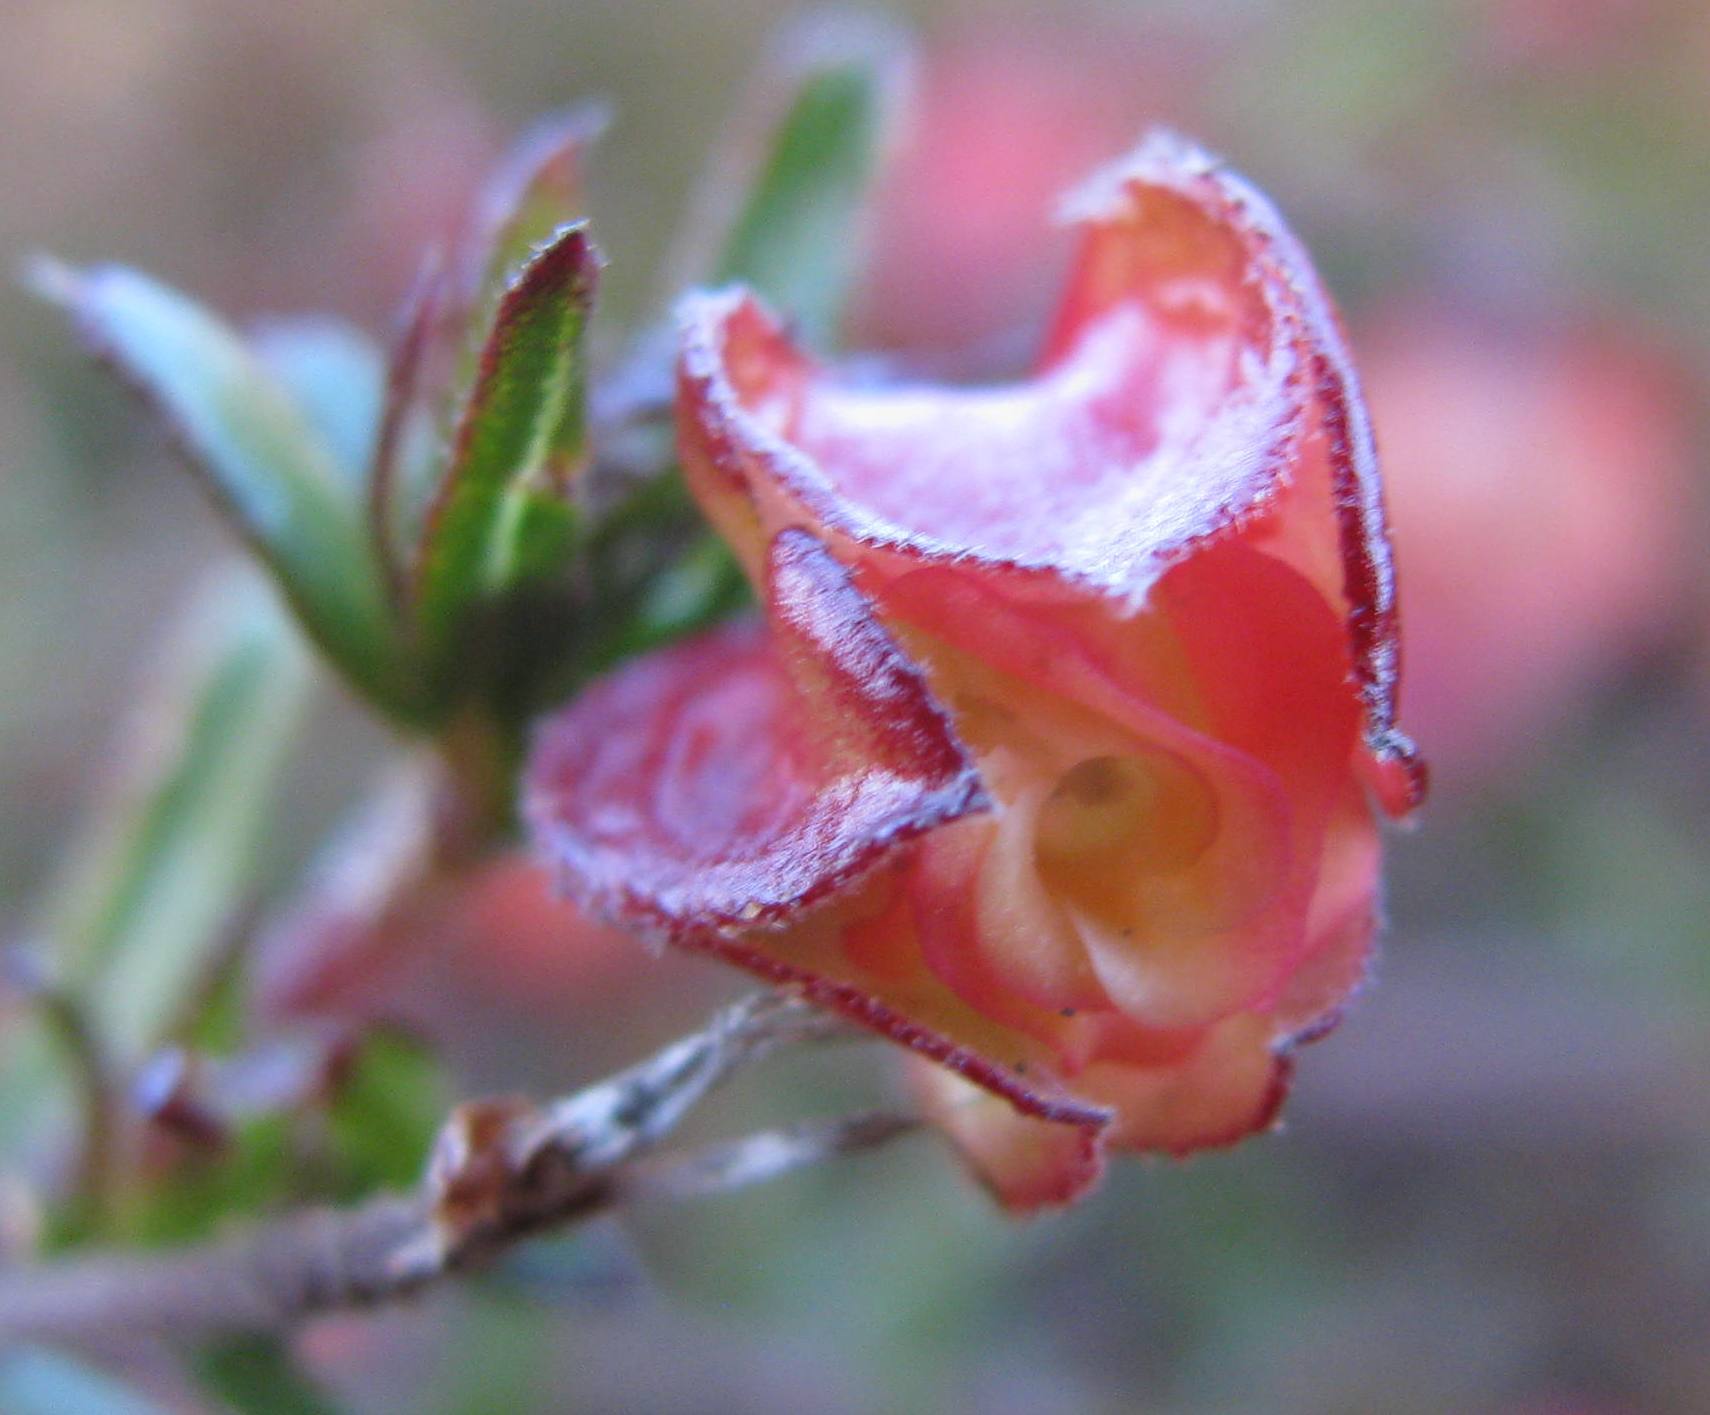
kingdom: Plantae
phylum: Tracheophyta
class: Magnoliopsida
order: Malvales
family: Malvaceae
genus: Hermannia
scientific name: Hermannia angularis
